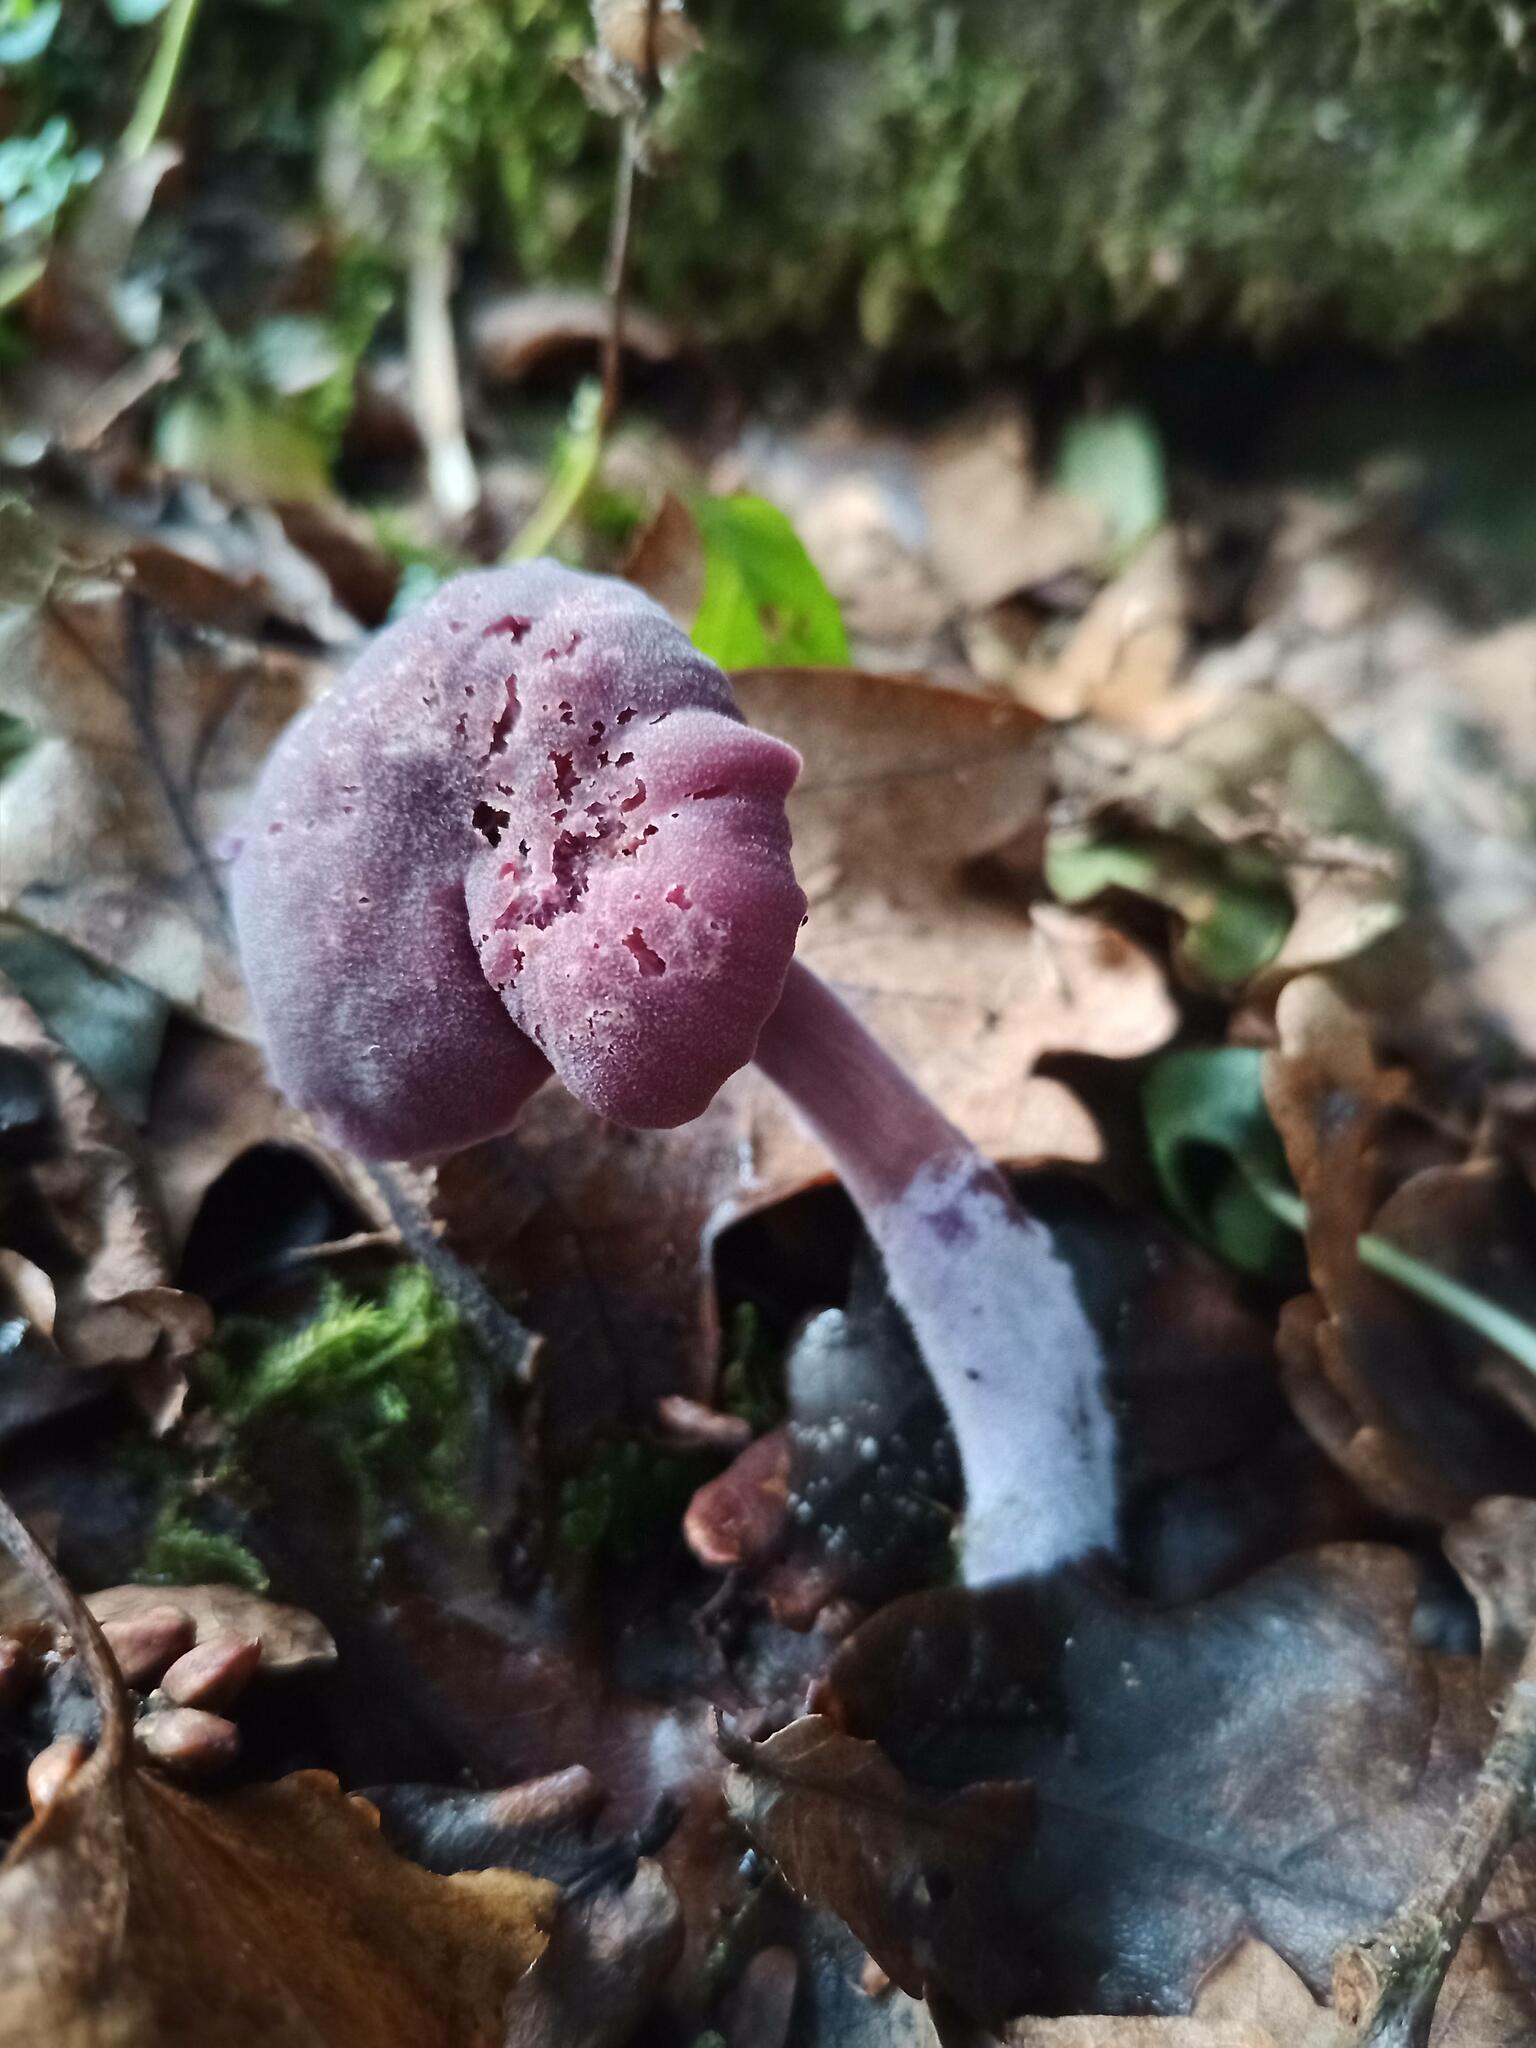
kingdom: Fungi
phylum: Basidiomycota
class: Agaricomycetes
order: Agaricales
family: Hydnangiaceae
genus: Laccaria
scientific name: Laccaria amethystina
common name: Amethyst deceiver
